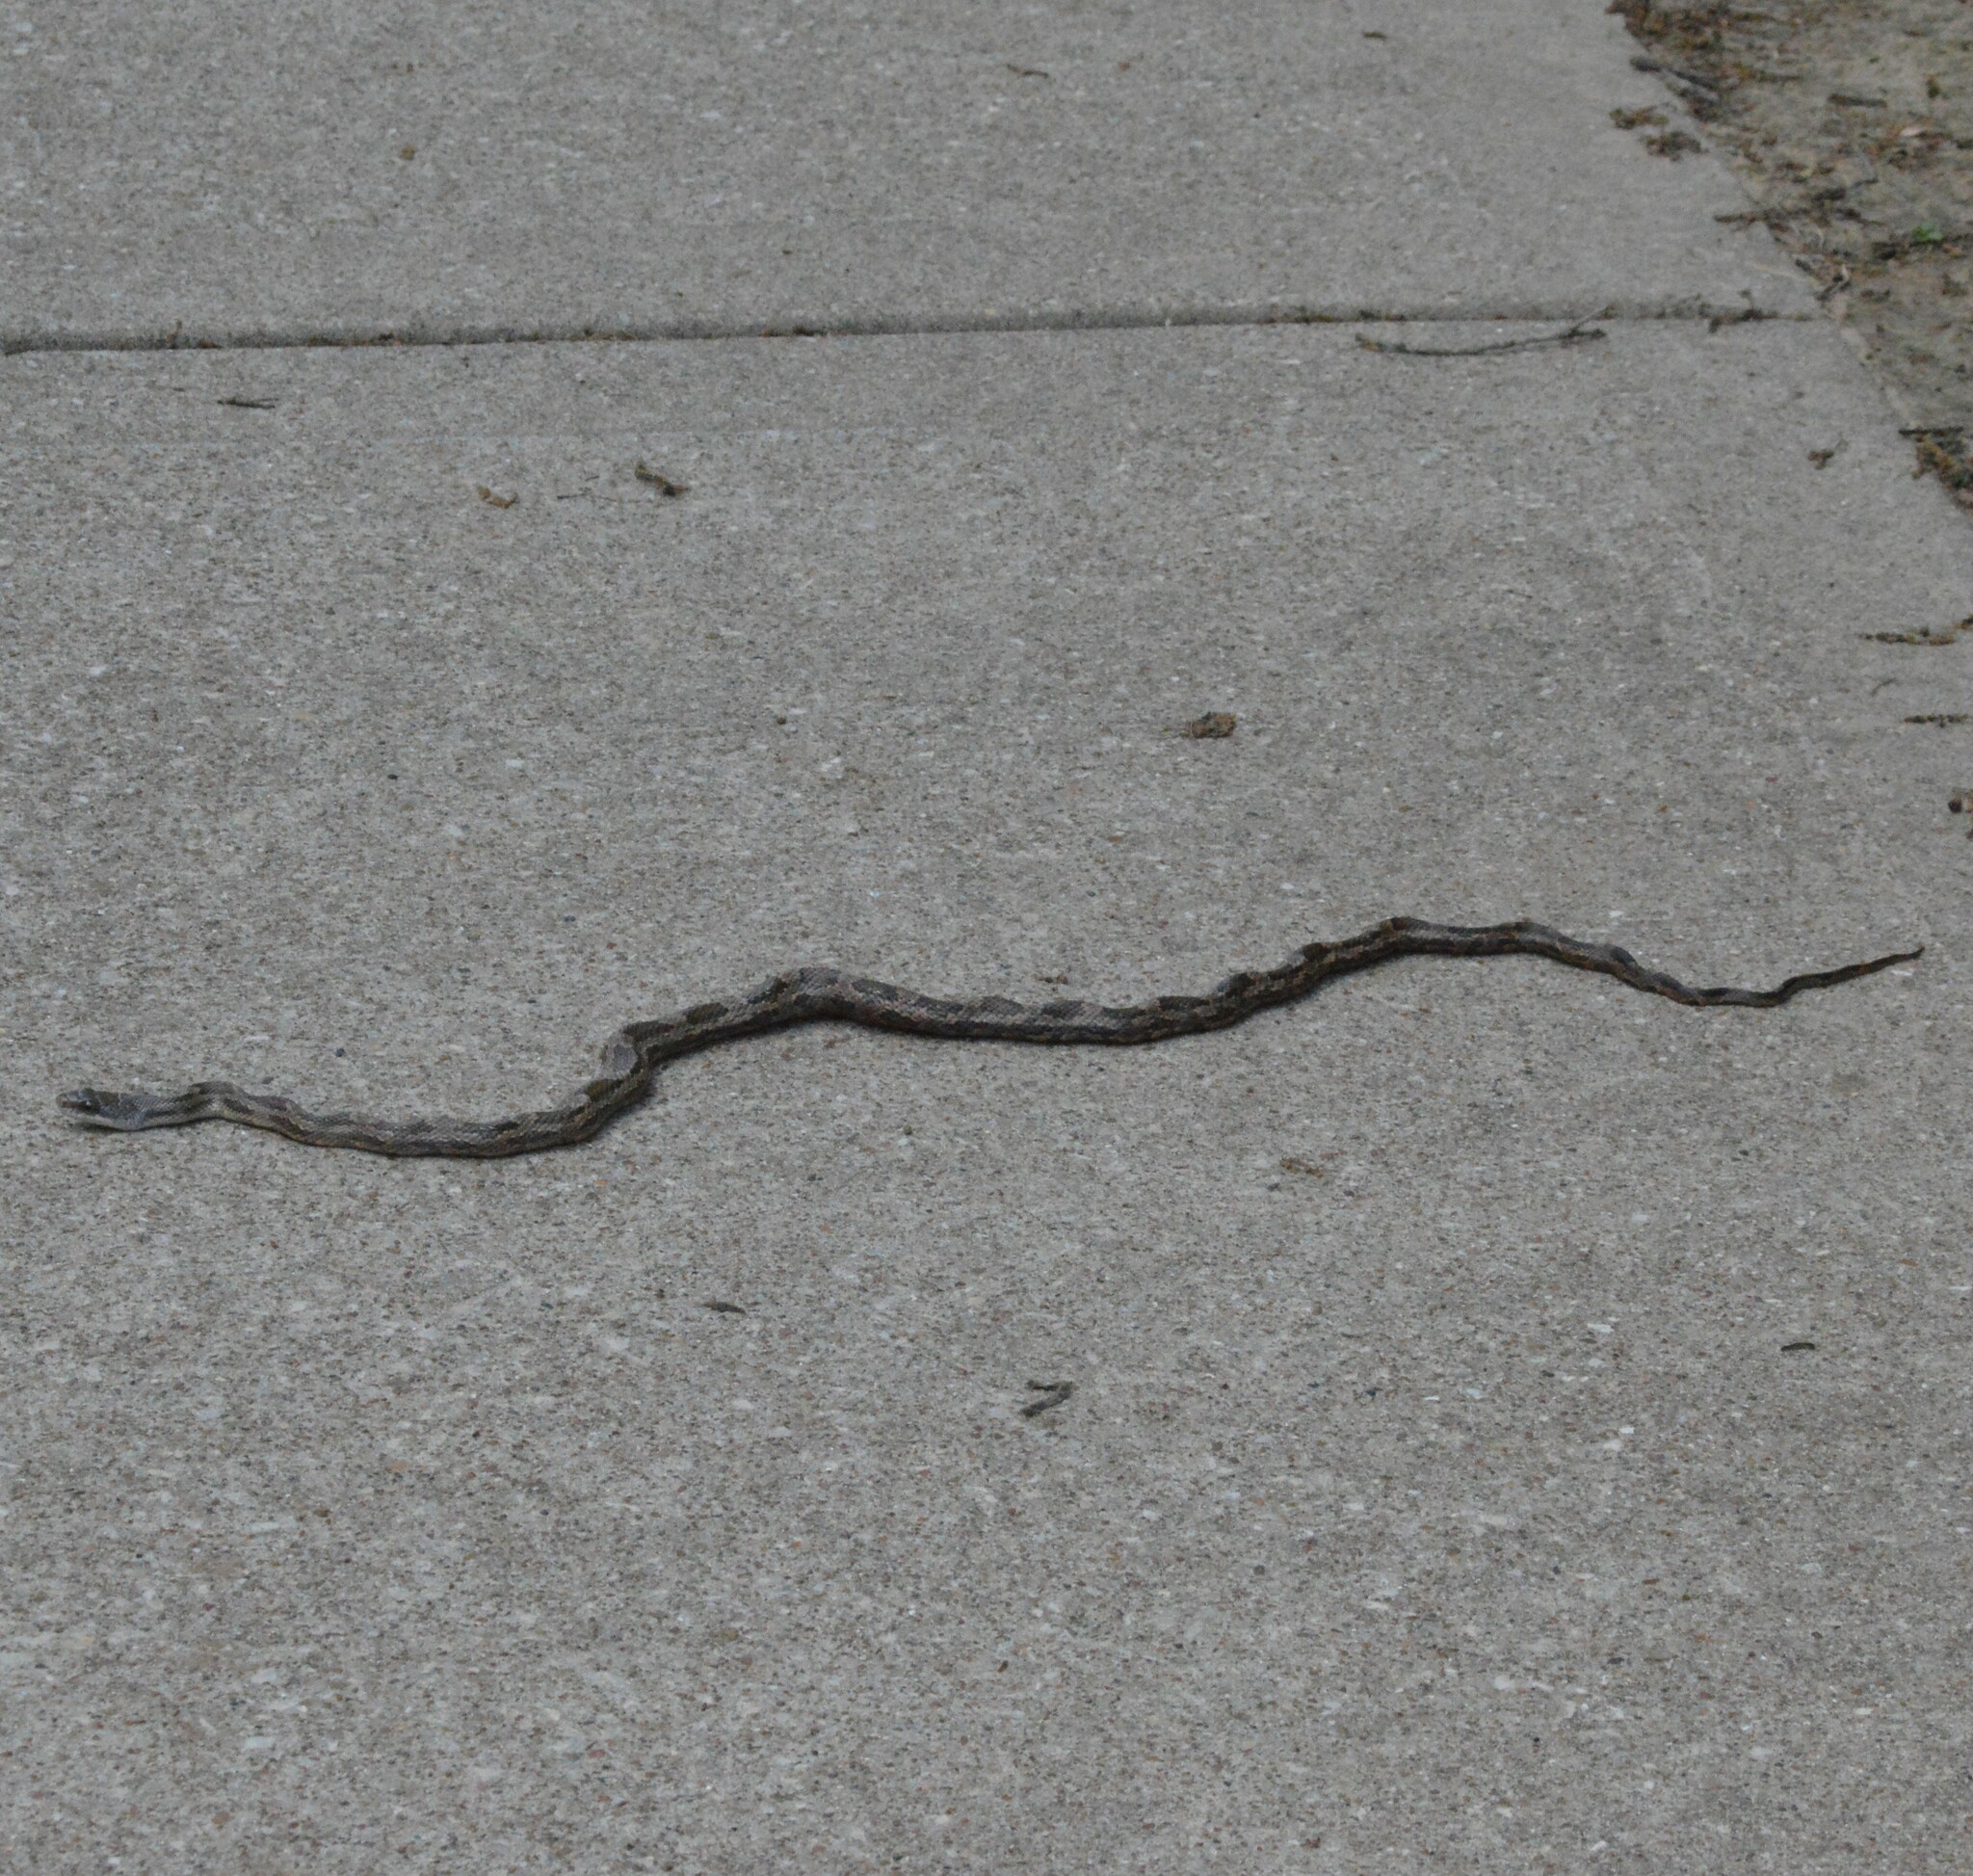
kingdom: Animalia
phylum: Chordata
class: Squamata
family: Colubridae
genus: Pantherophis
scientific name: Pantherophis obsoletus
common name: Black rat snake
